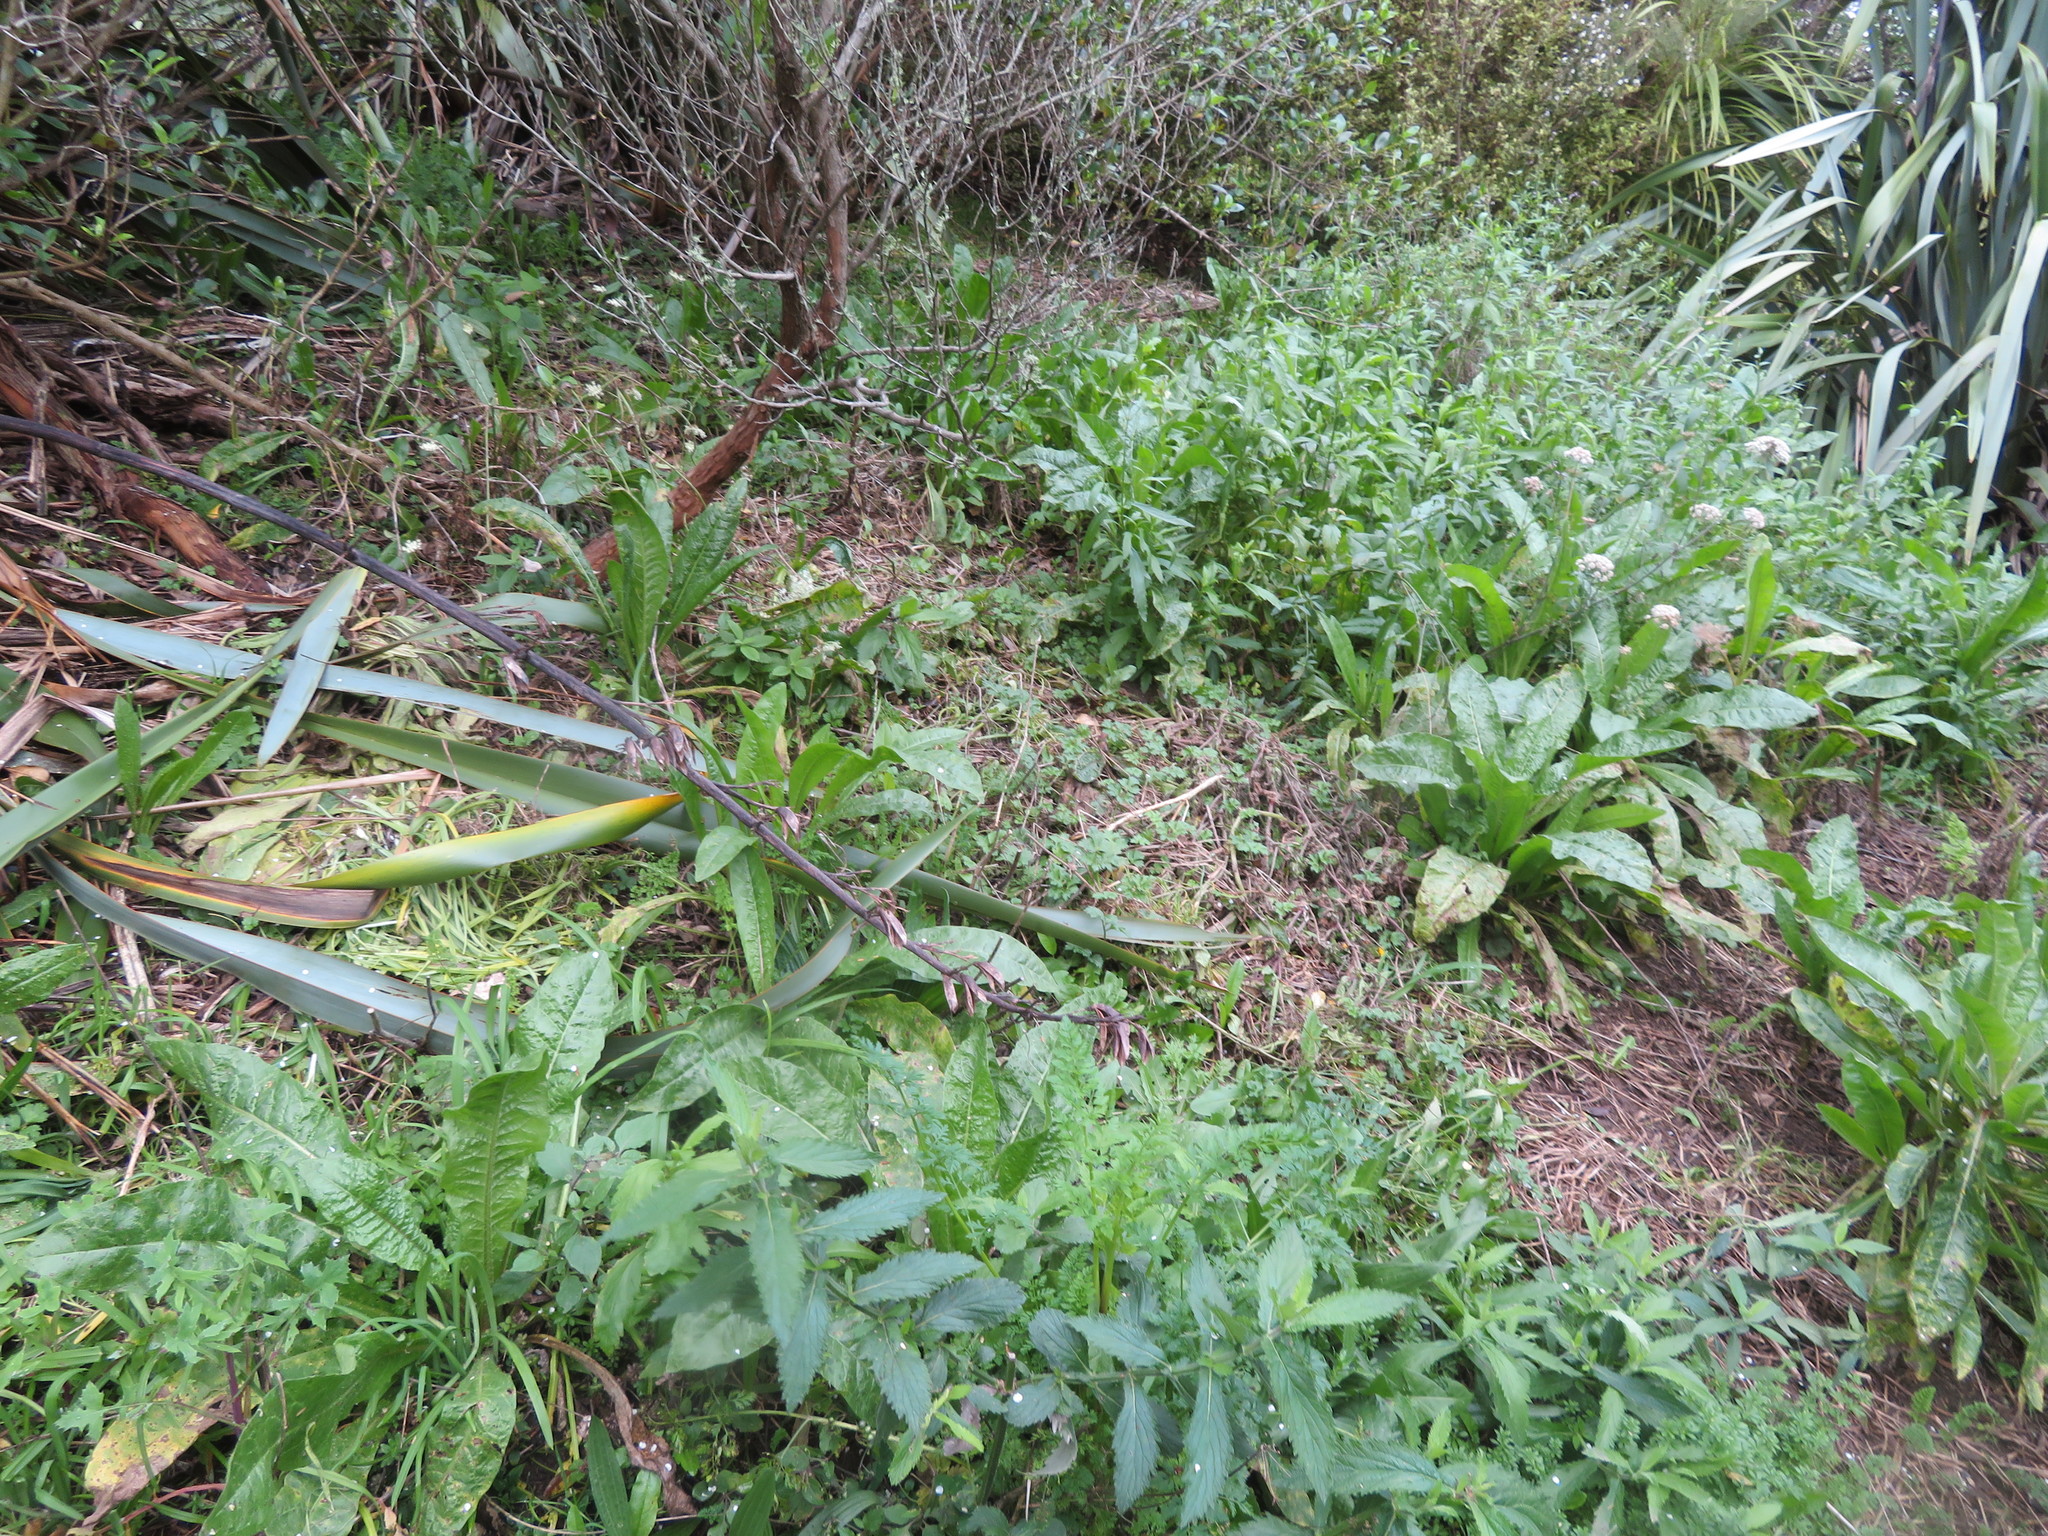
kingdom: Plantae
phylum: Tracheophyta
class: Magnoliopsida
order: Asterales
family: Asteraceae
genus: Helminthotheca
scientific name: Helminthotheca echioides
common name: Ox-tongue
